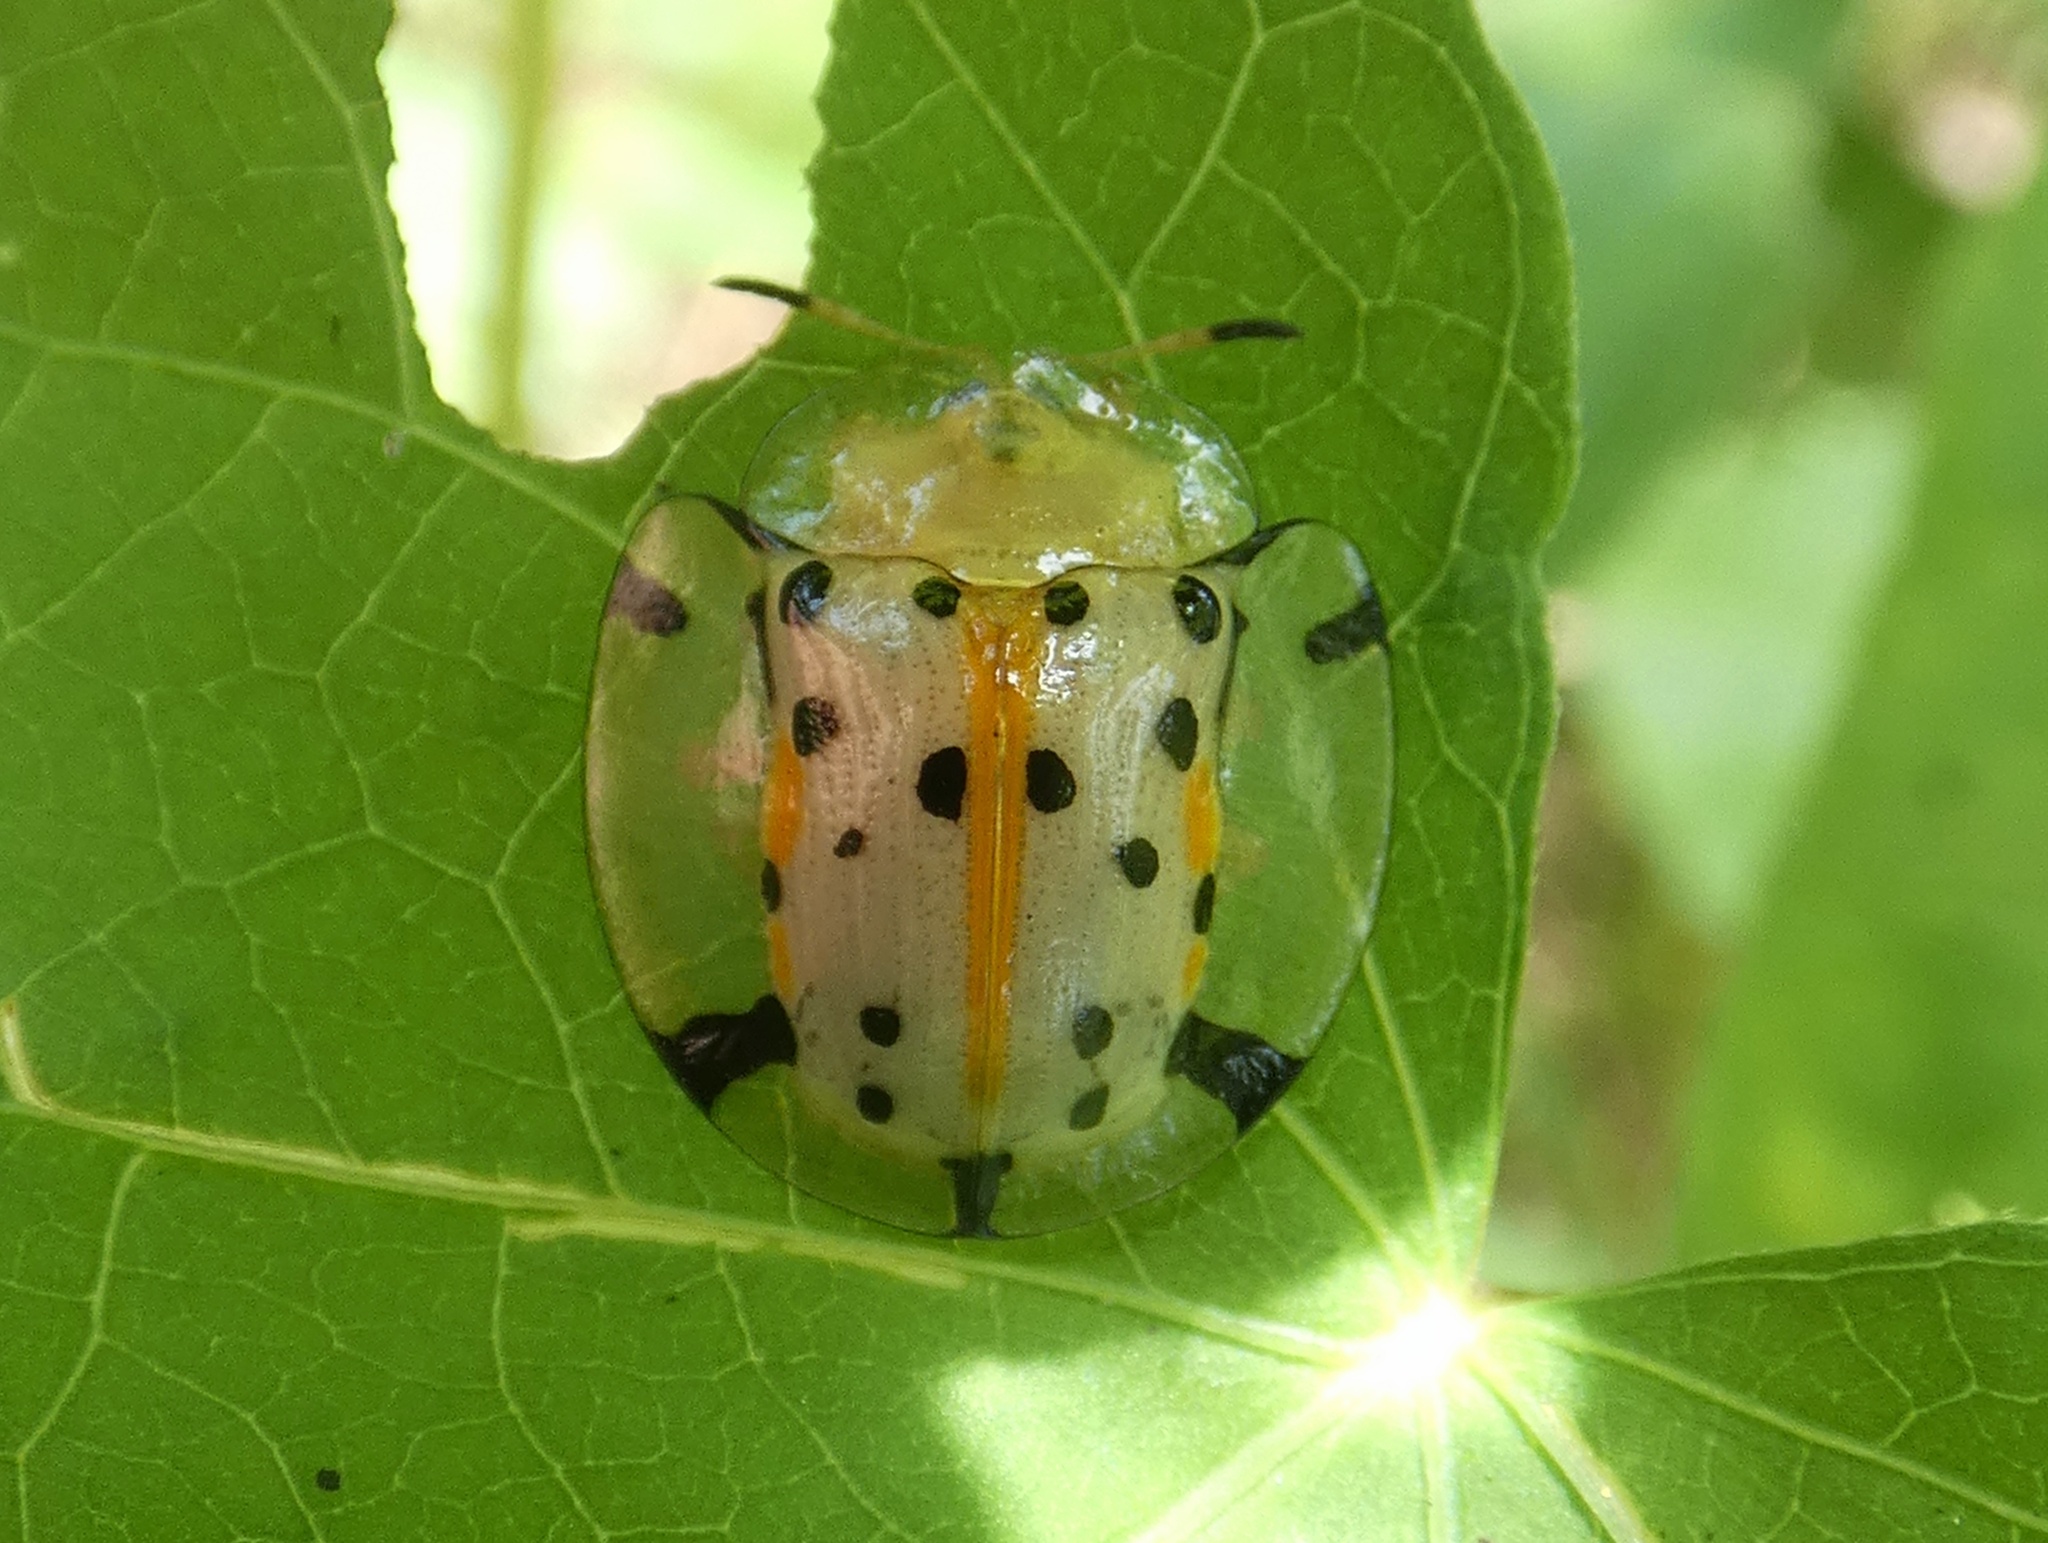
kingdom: Animalia
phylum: Arthropoda
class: Insecta
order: Coleoptera
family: Chrysomelidae
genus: Aspidimorpha
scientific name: Aspidimorpha miliaris
